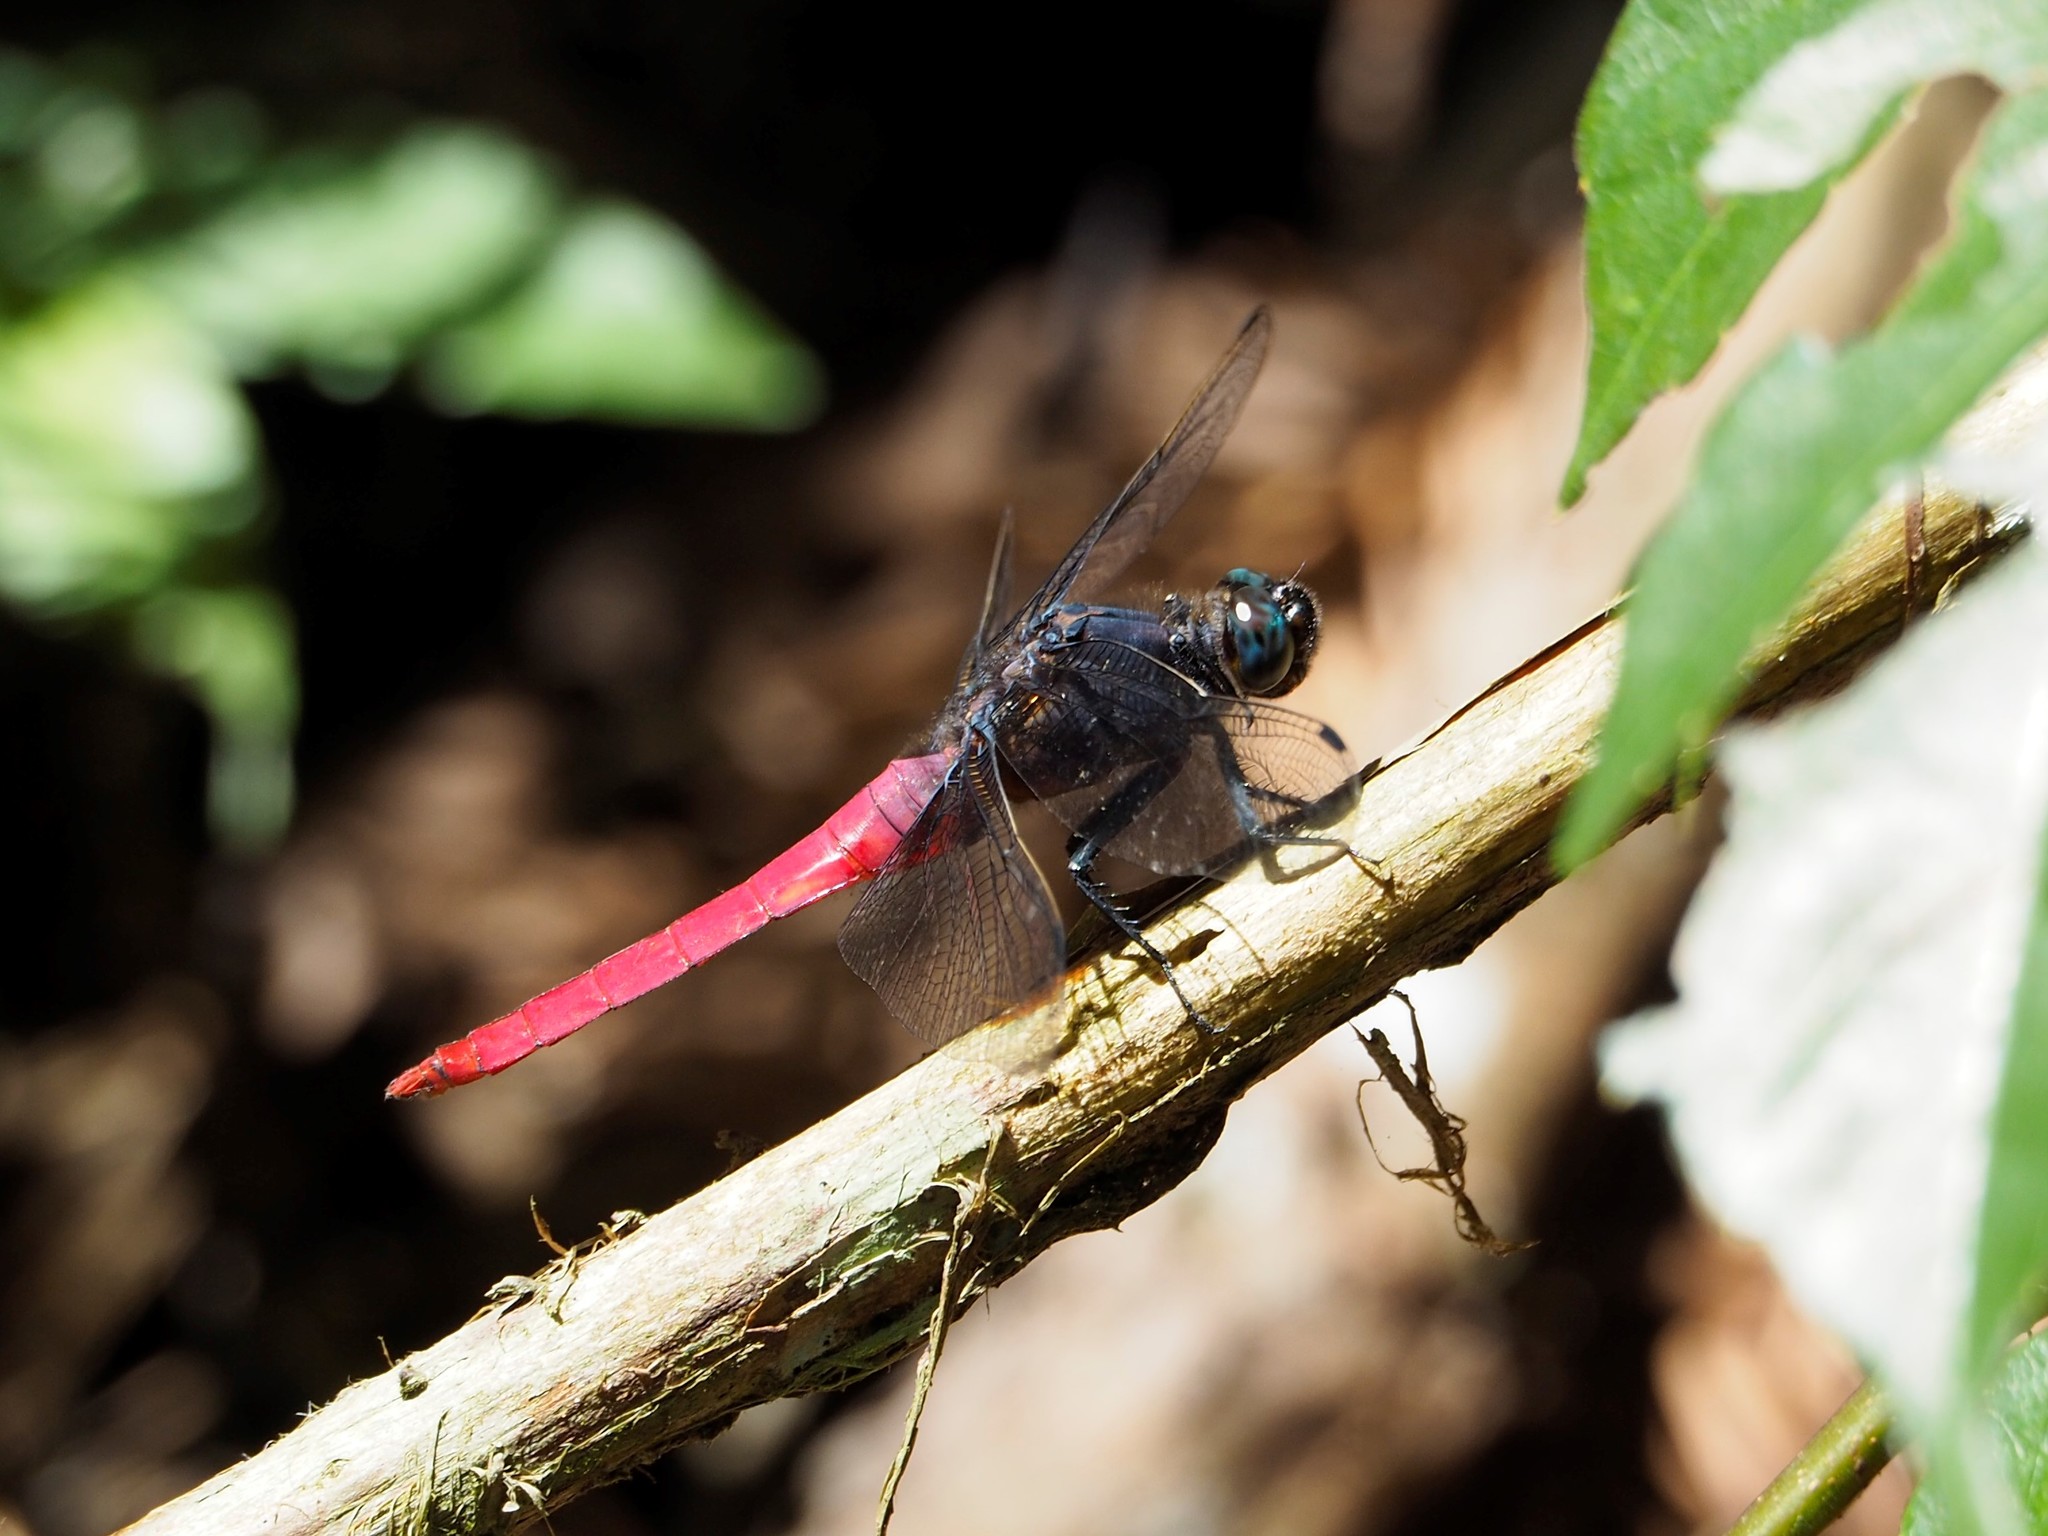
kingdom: Animalia
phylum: Arthropoda
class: Insecta
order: Odonata
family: Libellulidae
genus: Orthetrum
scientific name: Orthetrum pruinosum
